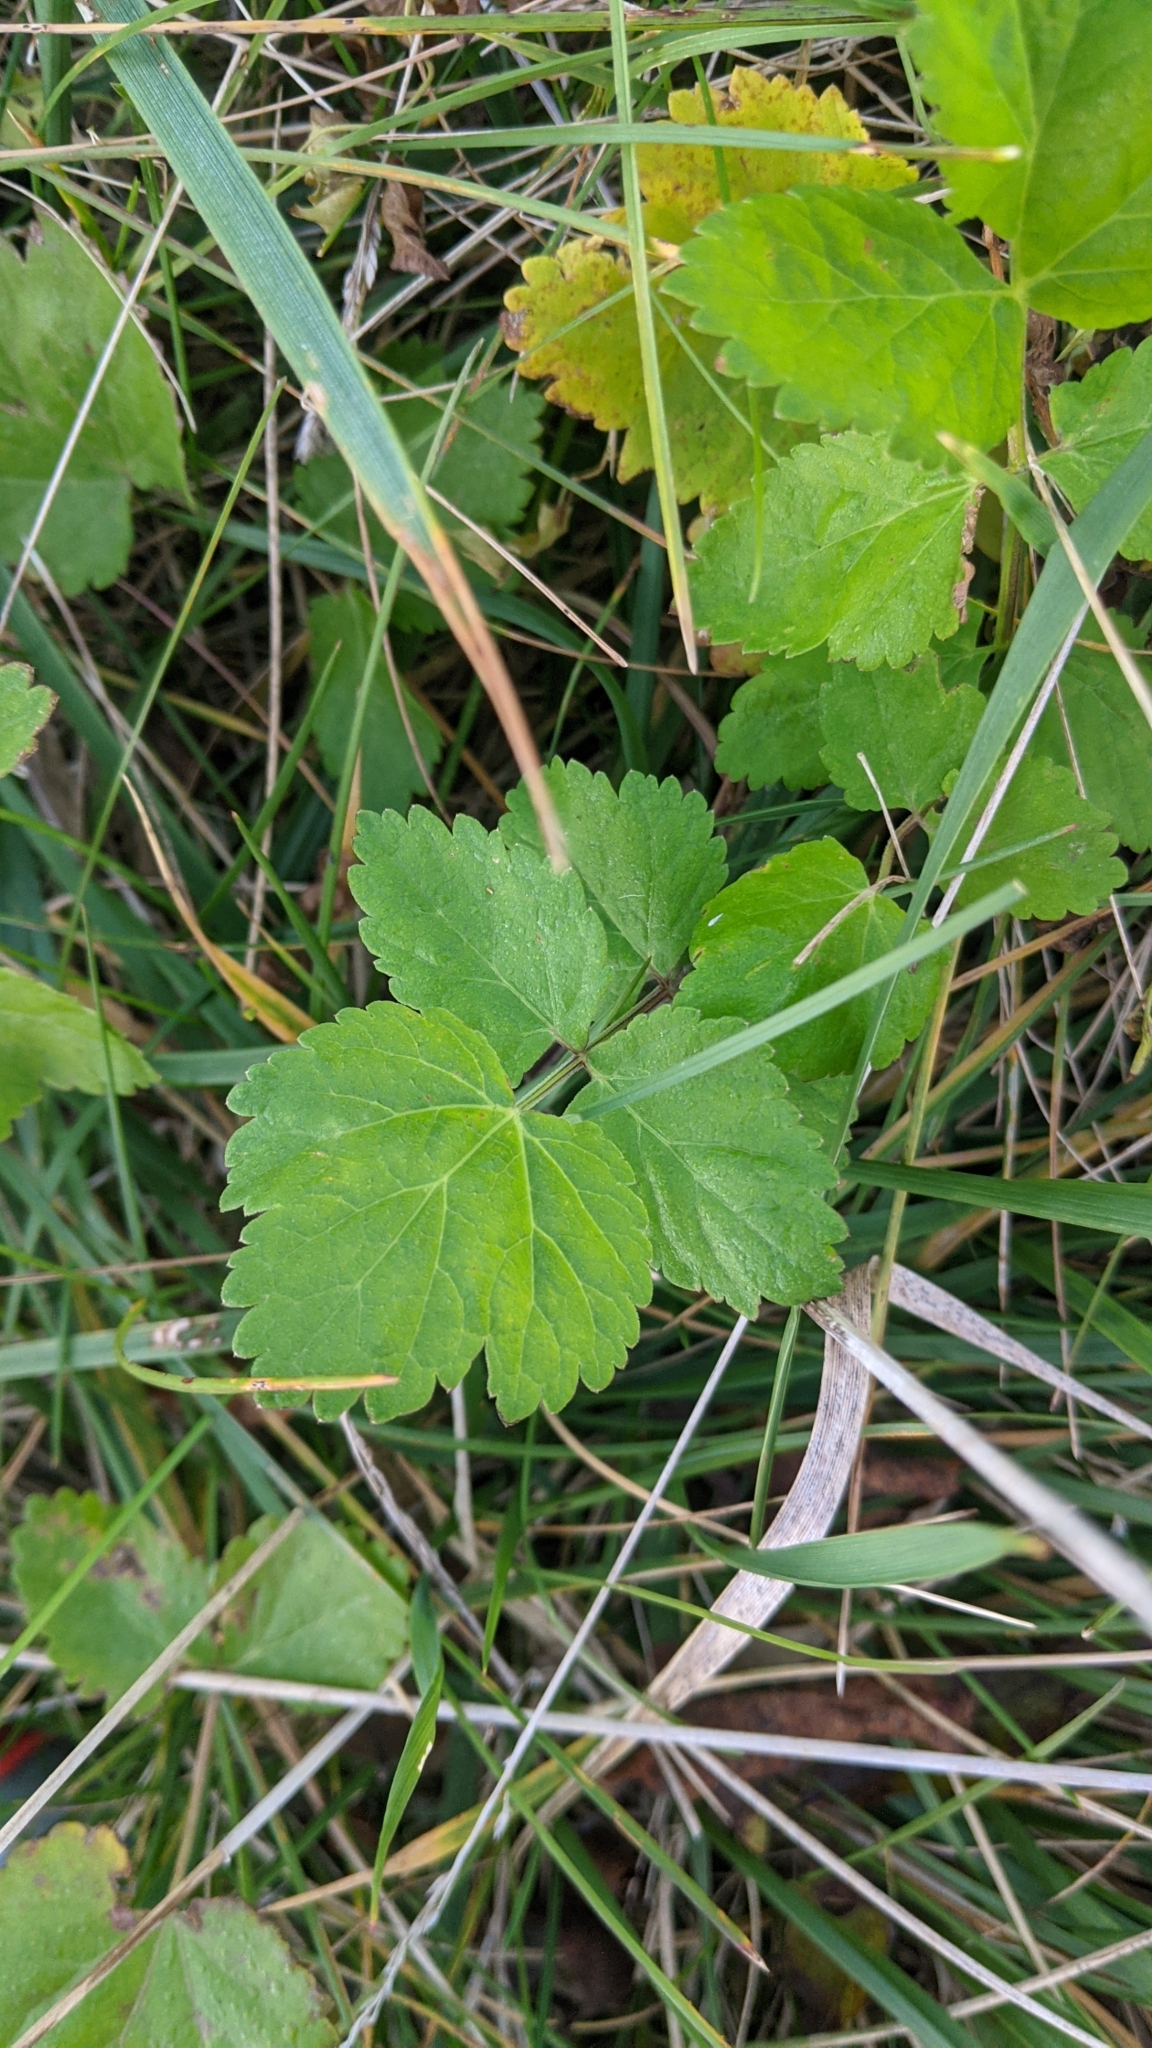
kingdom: Plantae
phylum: Tracheophyta
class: Magnoliopsida
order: Apiales
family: Apiaceae
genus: Pastinaca
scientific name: Pastinaca sativa
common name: Wild parsnip
